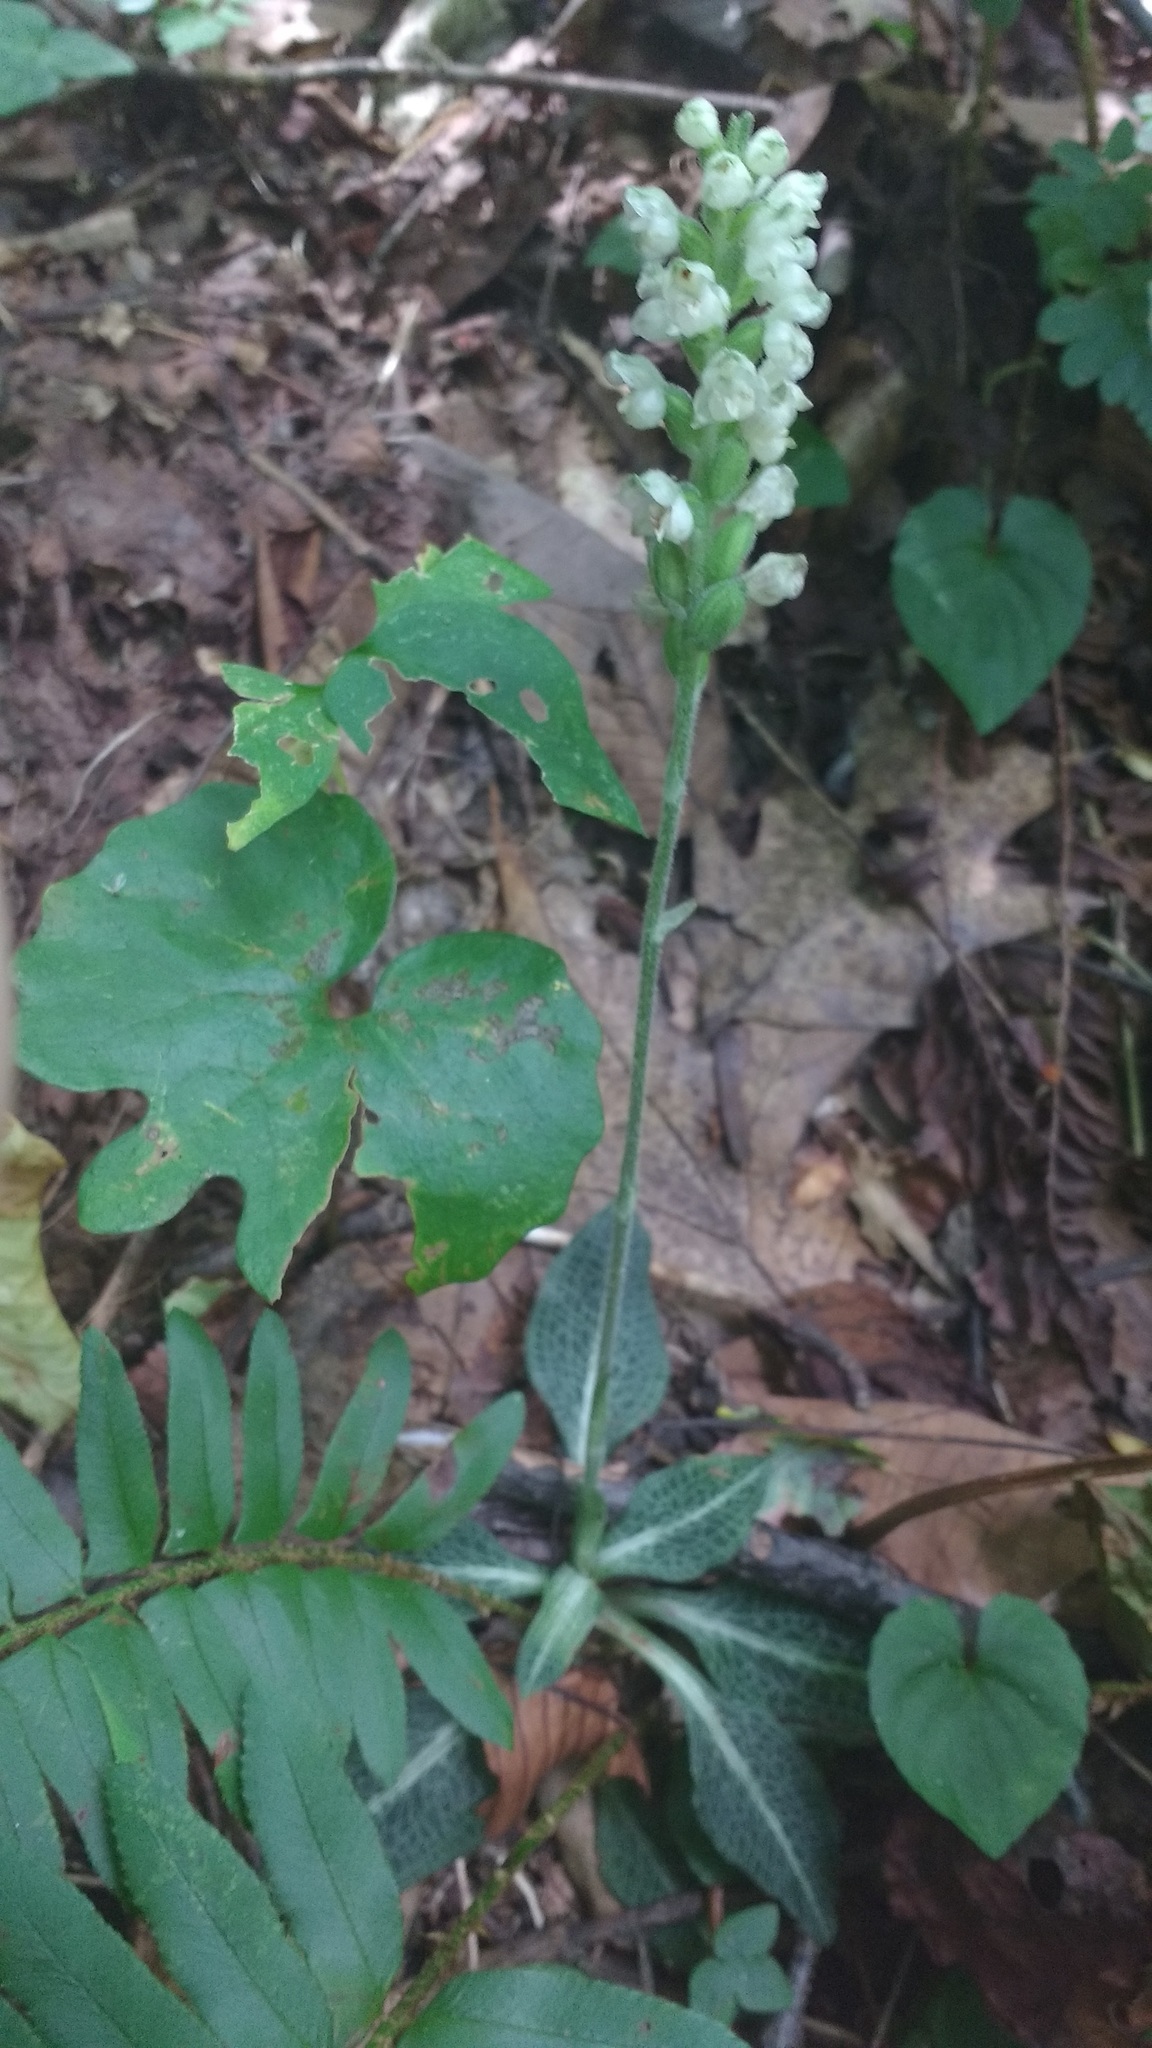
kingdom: Plantae
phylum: Tracheophyta
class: Liliopsida
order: Asparagales
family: Orchidaceae
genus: Goodyera
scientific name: Goodyera pubescens
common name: Downy rattlesnake-plantain
